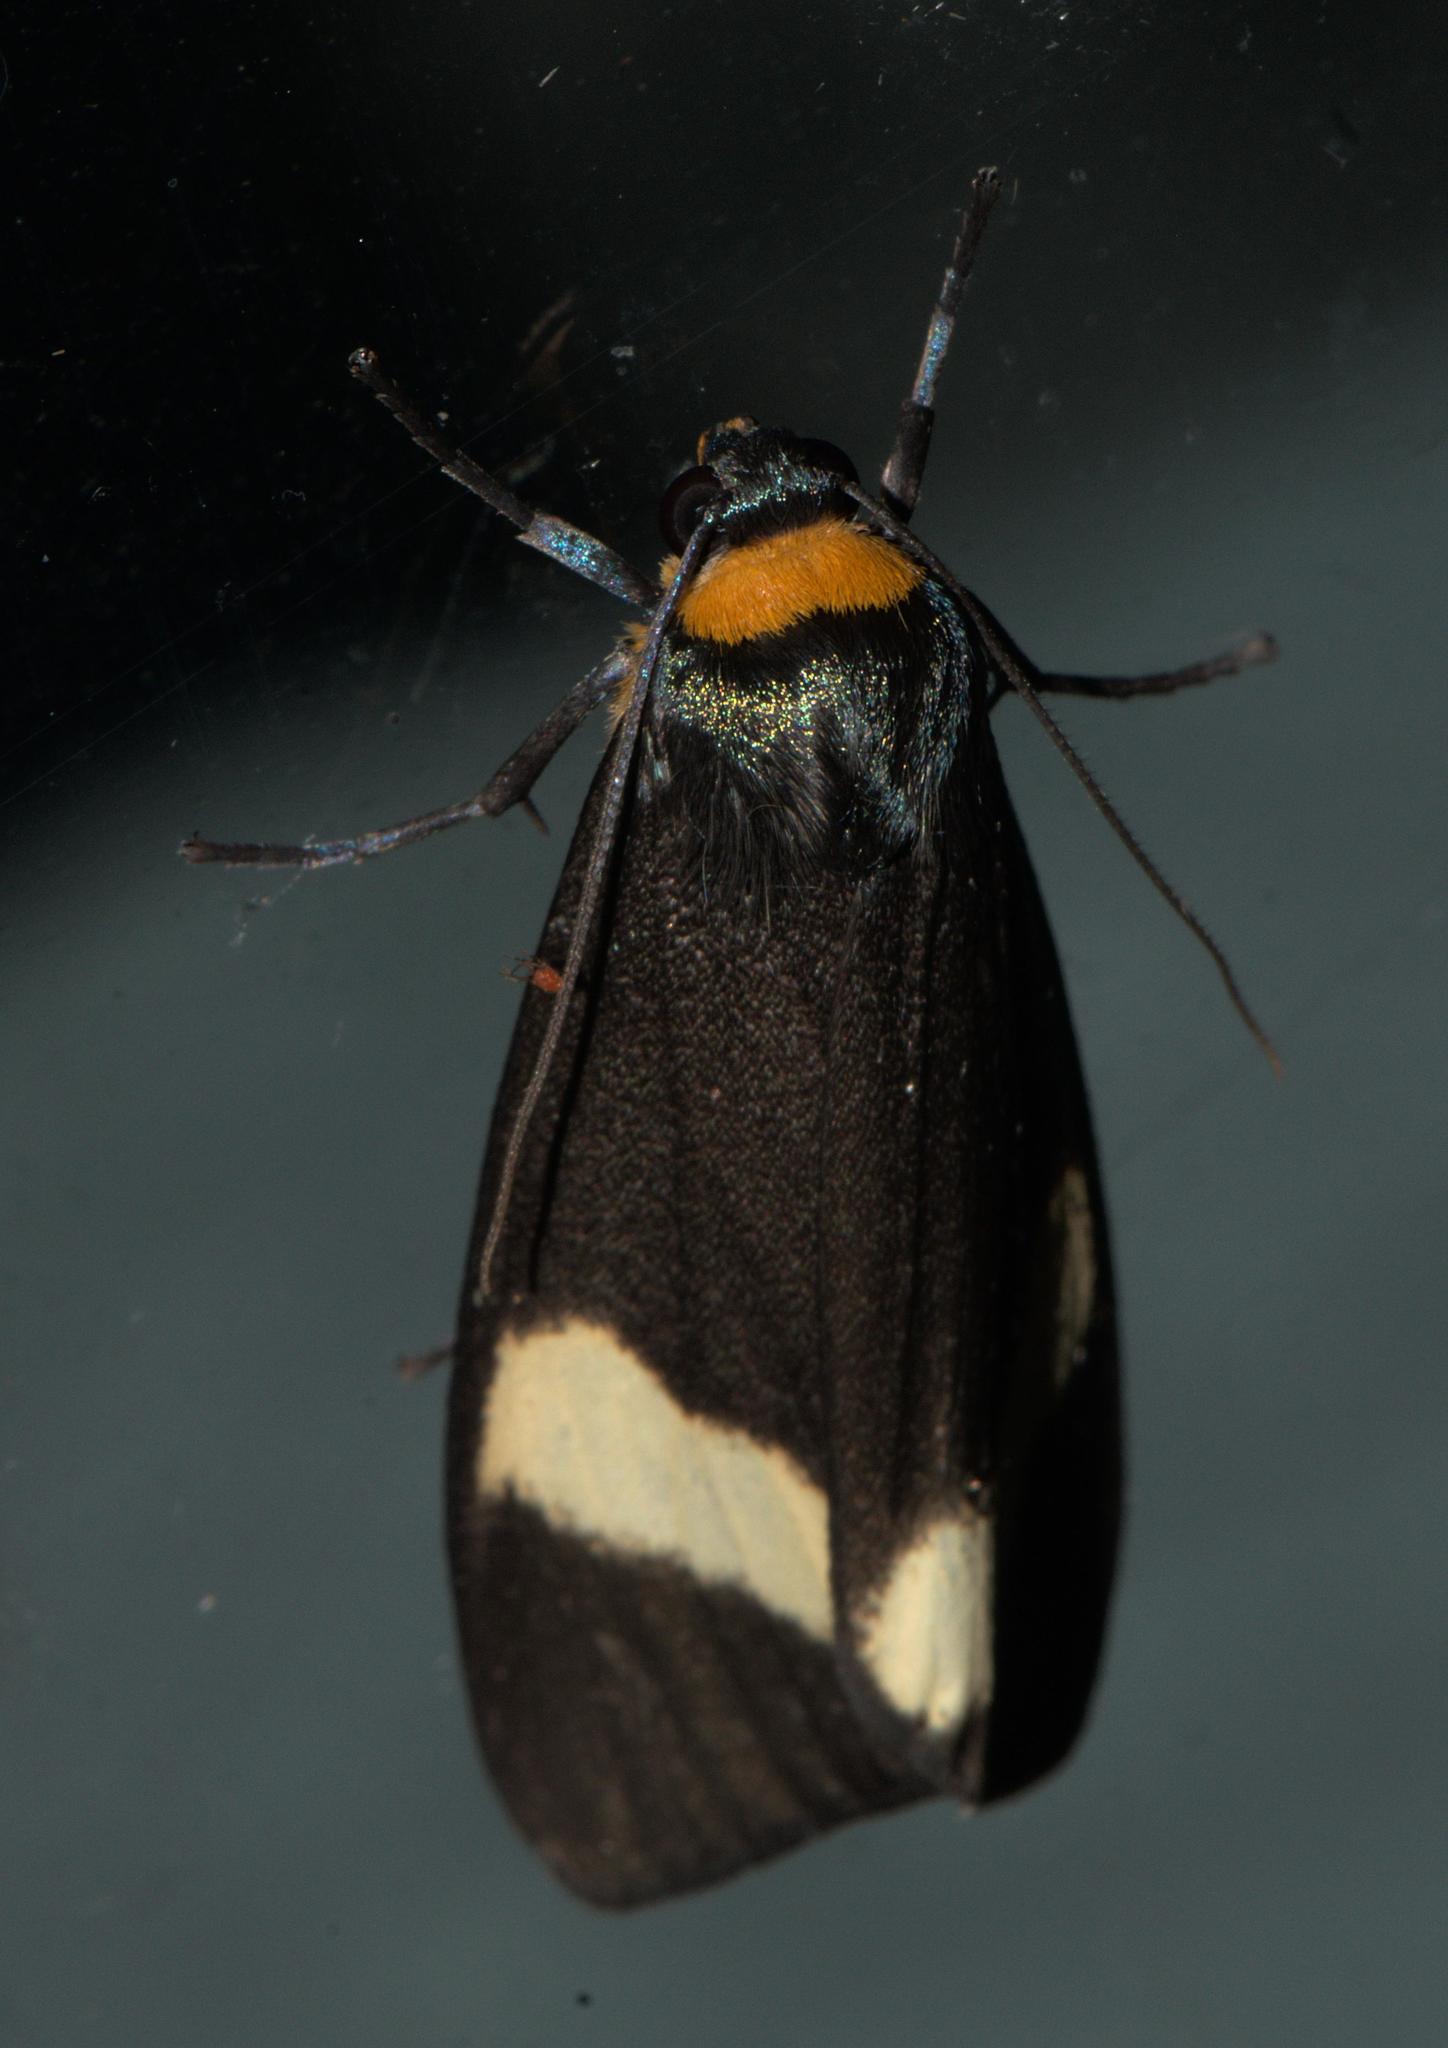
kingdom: Animalia
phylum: Arthropoda
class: Insecta
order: Lepidoptera
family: Erebidae
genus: Macrobrochis
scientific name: Macrobrochis albifascia
